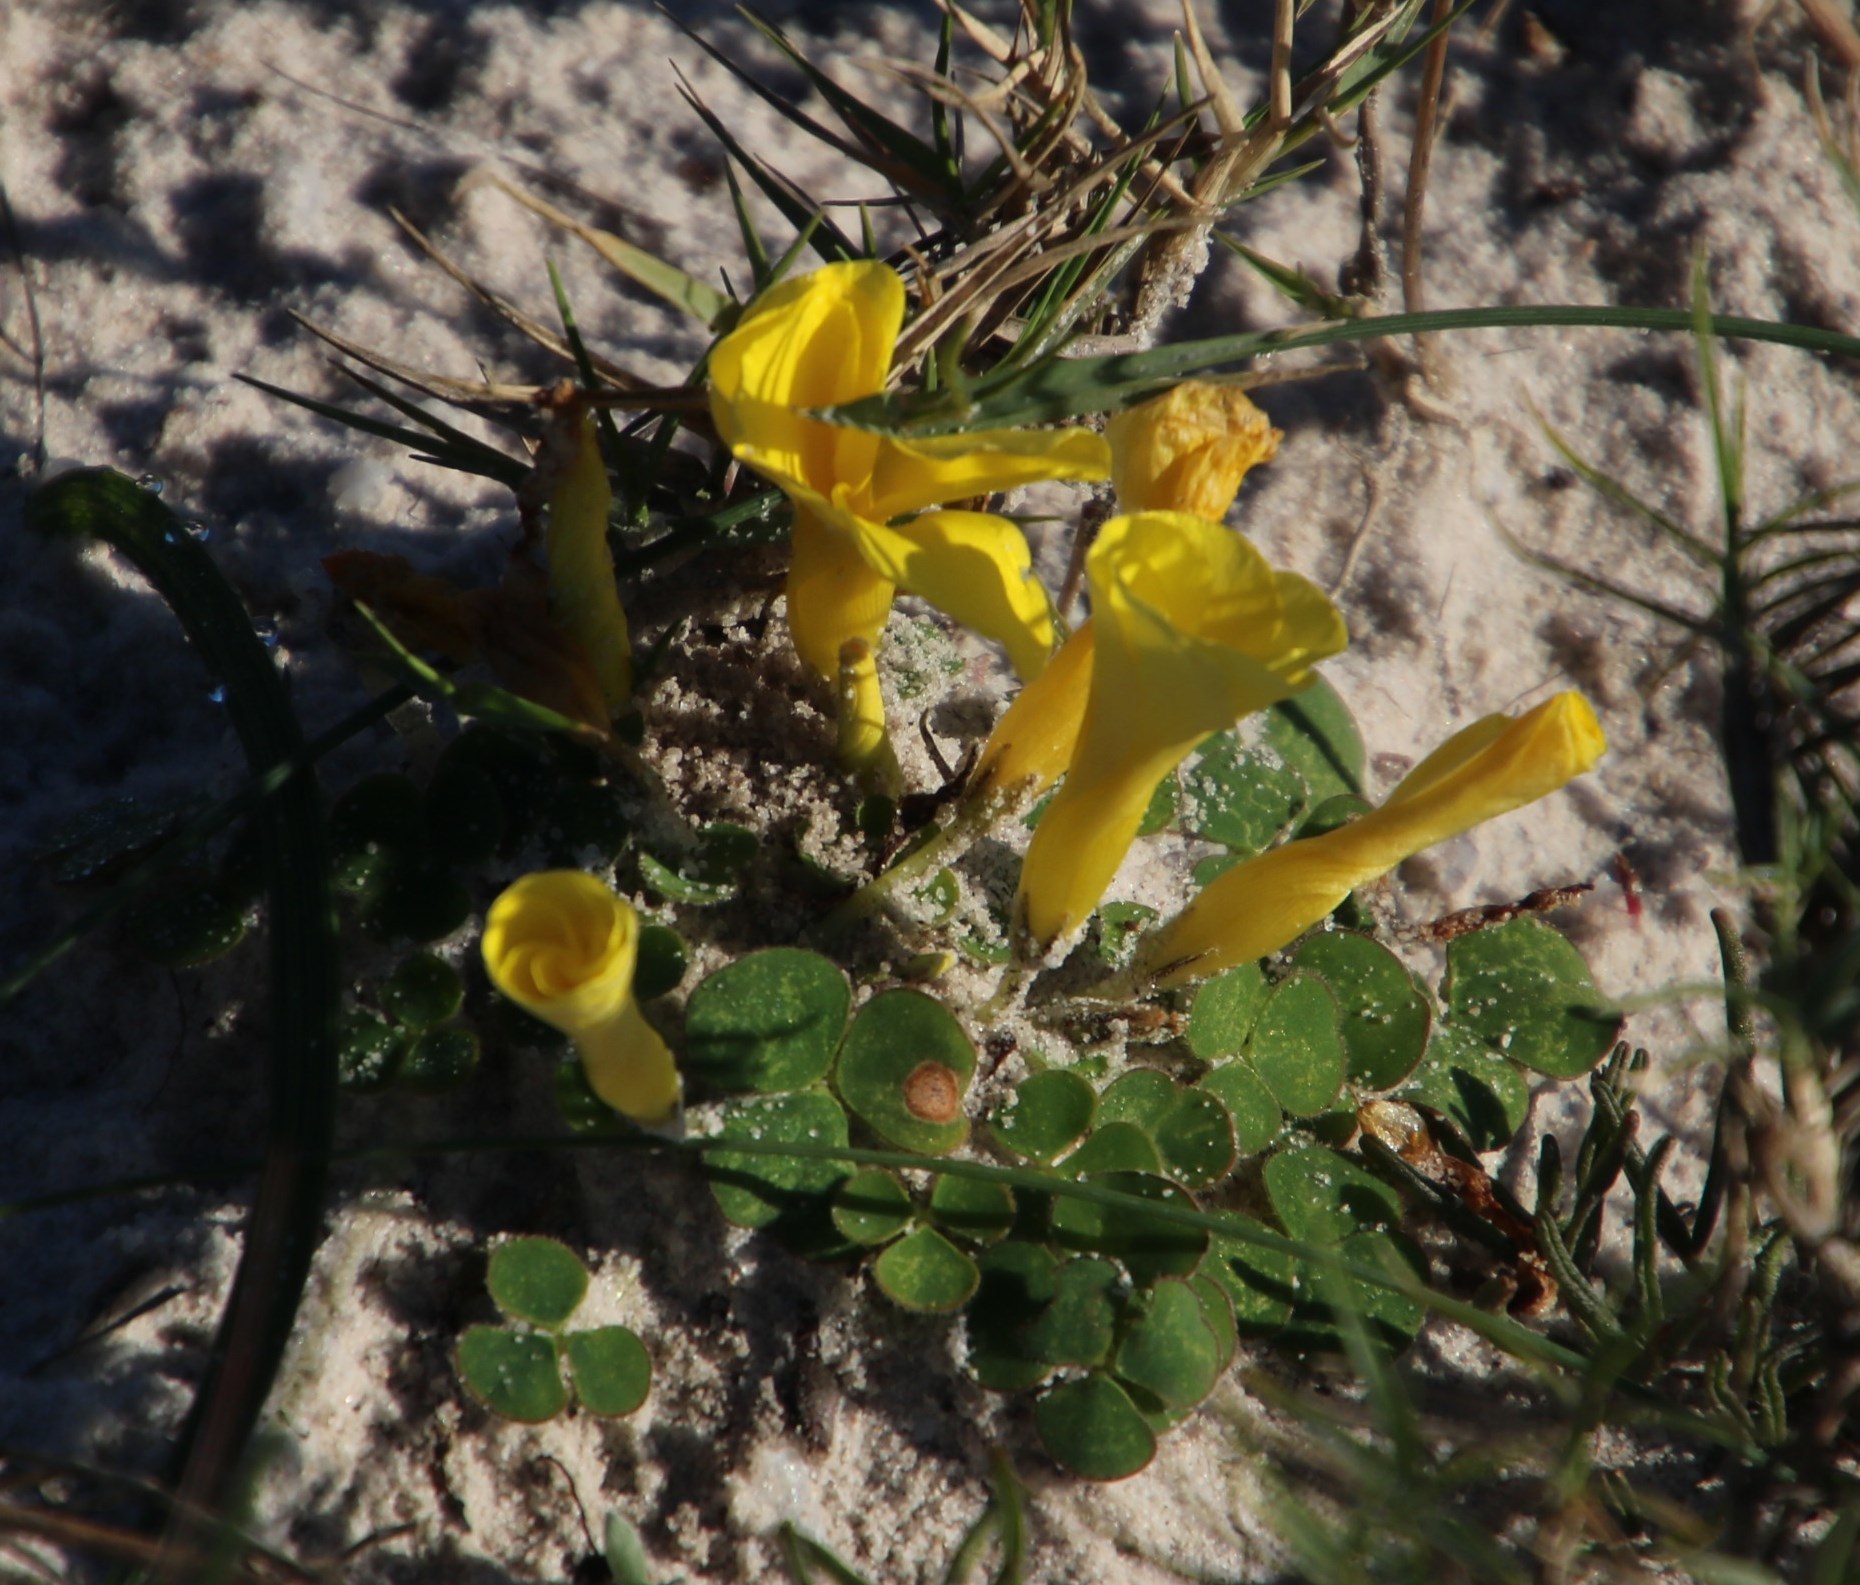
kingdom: Plantae
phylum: Tracheophyta
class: Magnoliopsida
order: Oxalidales
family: Oxalidaceae
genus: Oxalis
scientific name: Oxalis luteola
